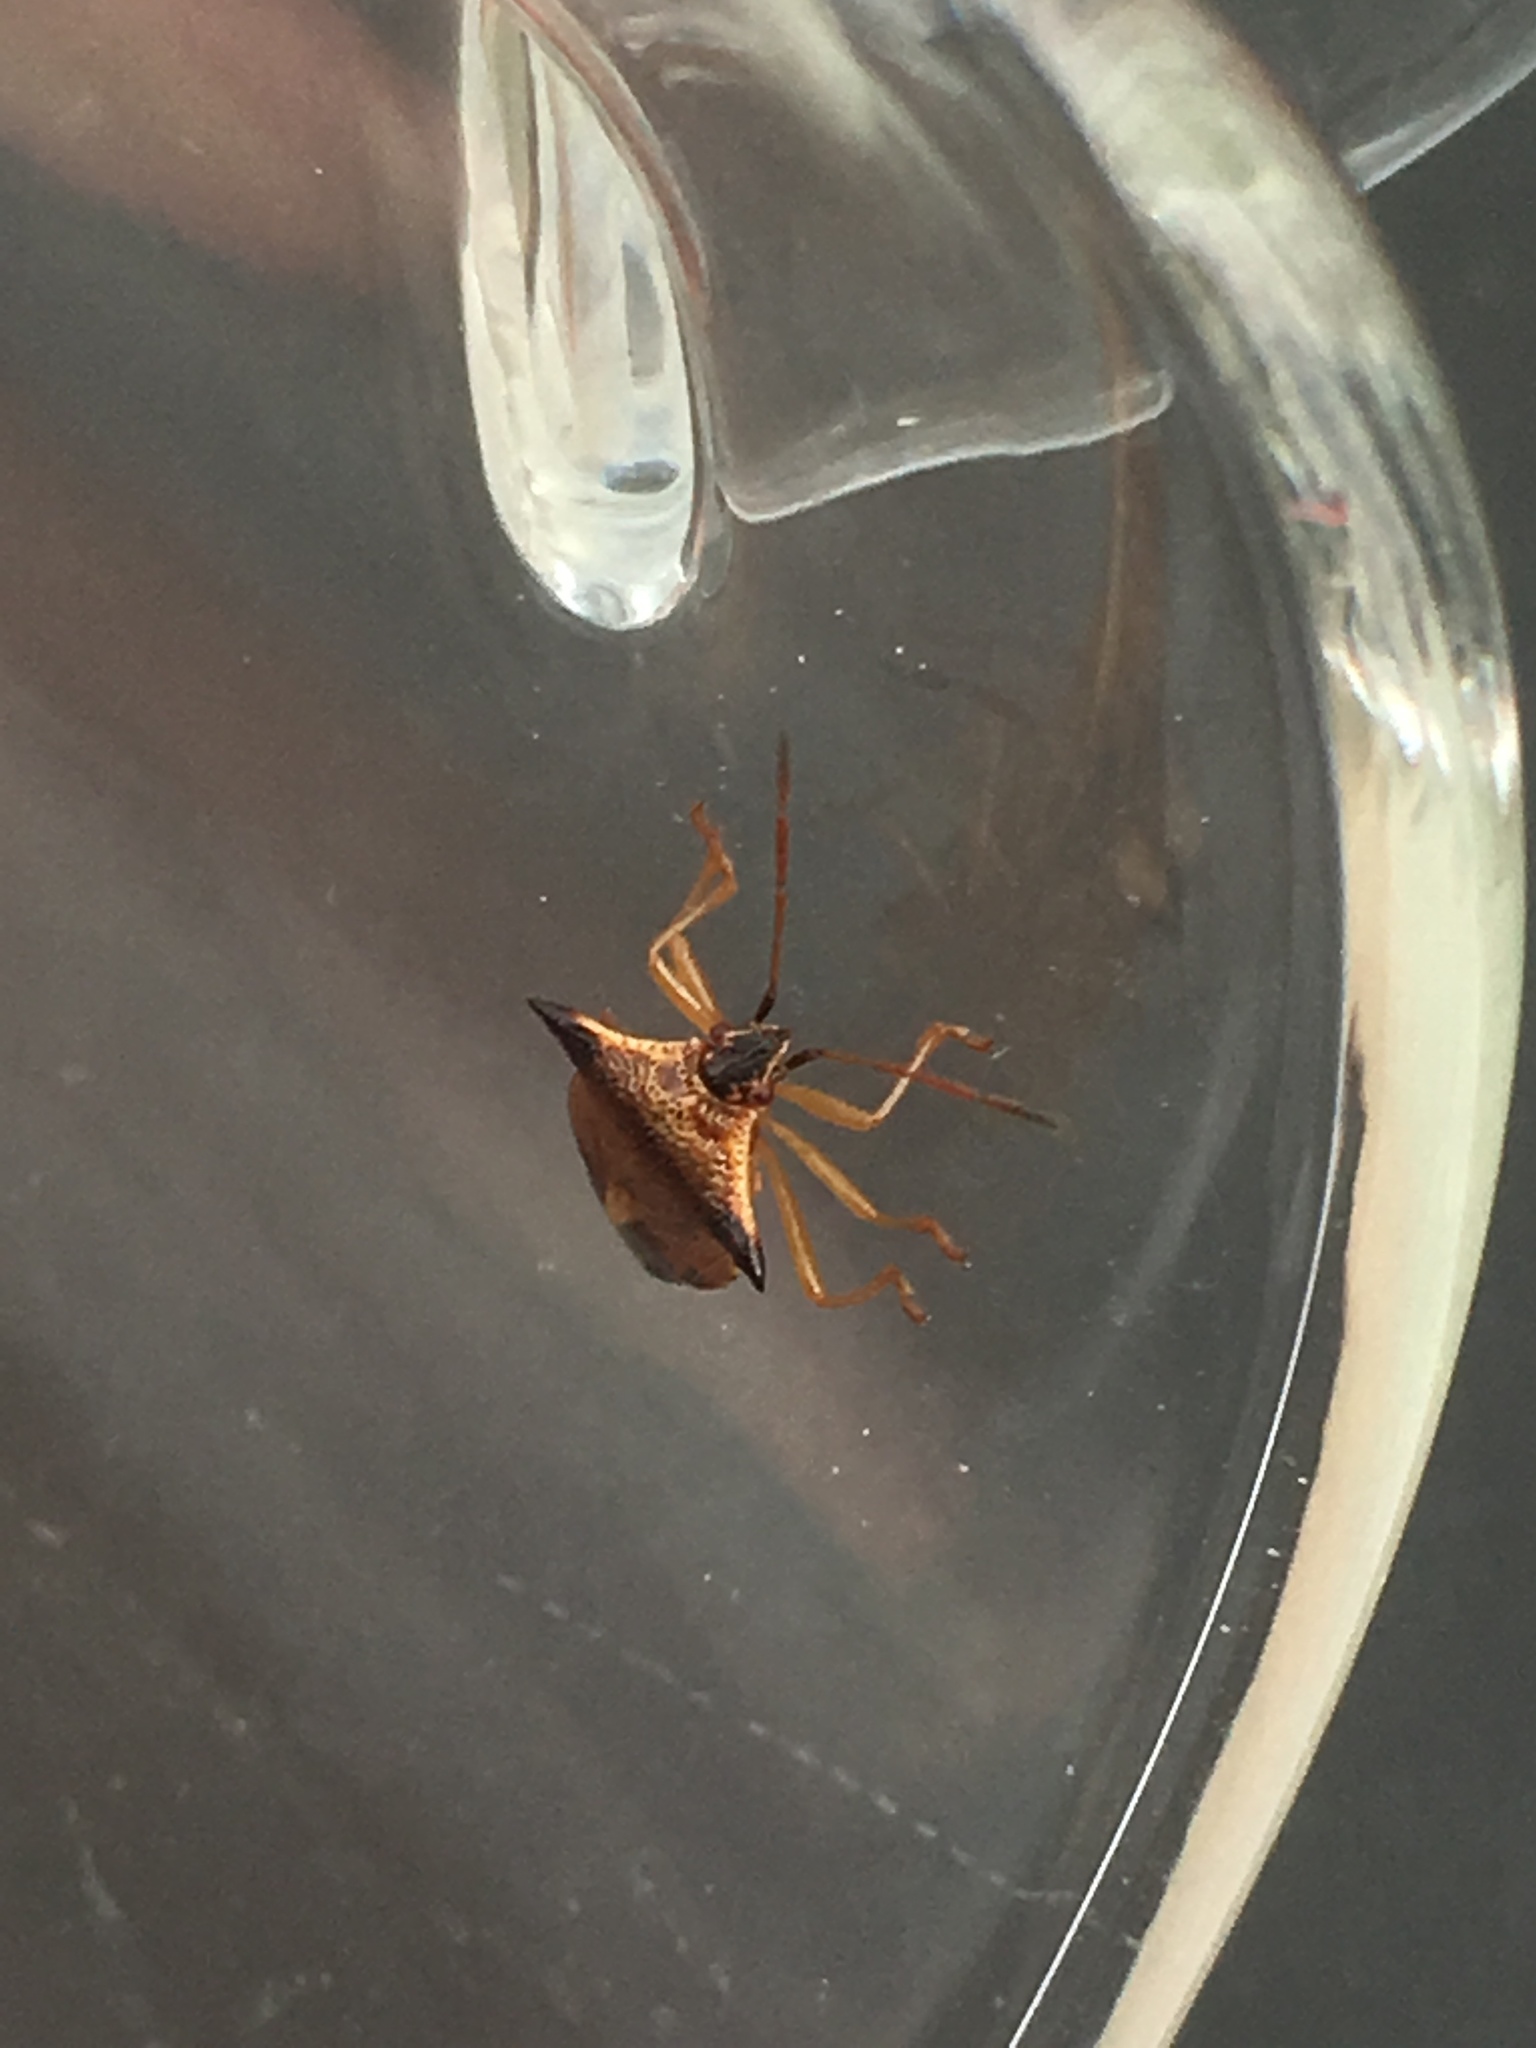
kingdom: Animalia
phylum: Arthropoda
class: Insecta
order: Hemiptera
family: Acanthosomatidae
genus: Elasmucha
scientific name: Elasmucha ferrugata
